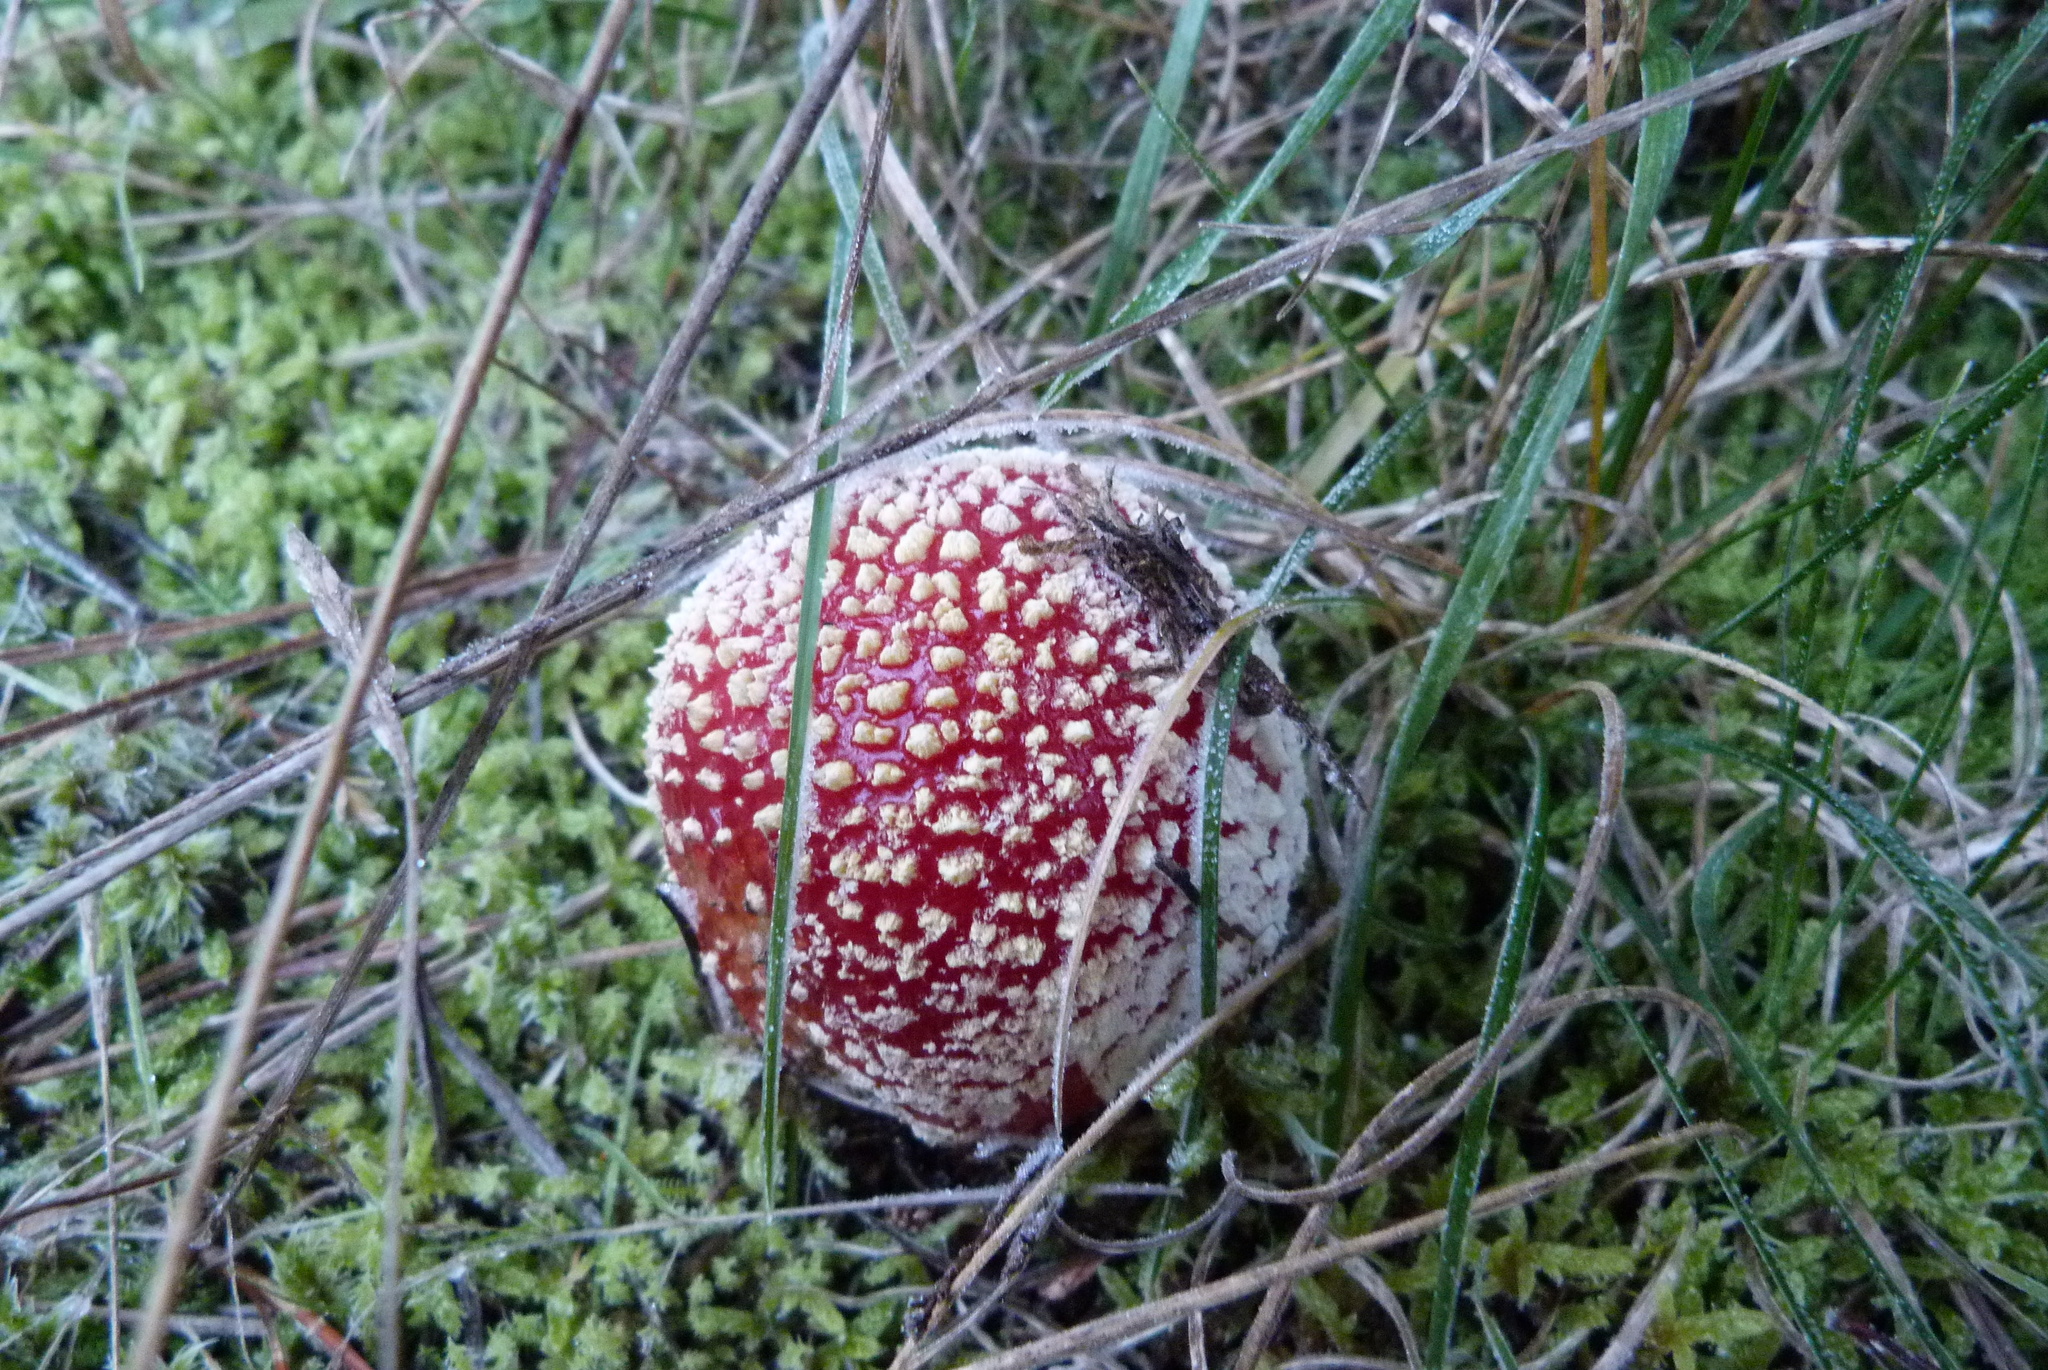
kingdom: Fungi
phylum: Basidiomycota
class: Agaricomycetes
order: Agaricales
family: Amanitaceae
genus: Amanita
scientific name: Amanita muscaria
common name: Fly agaric
